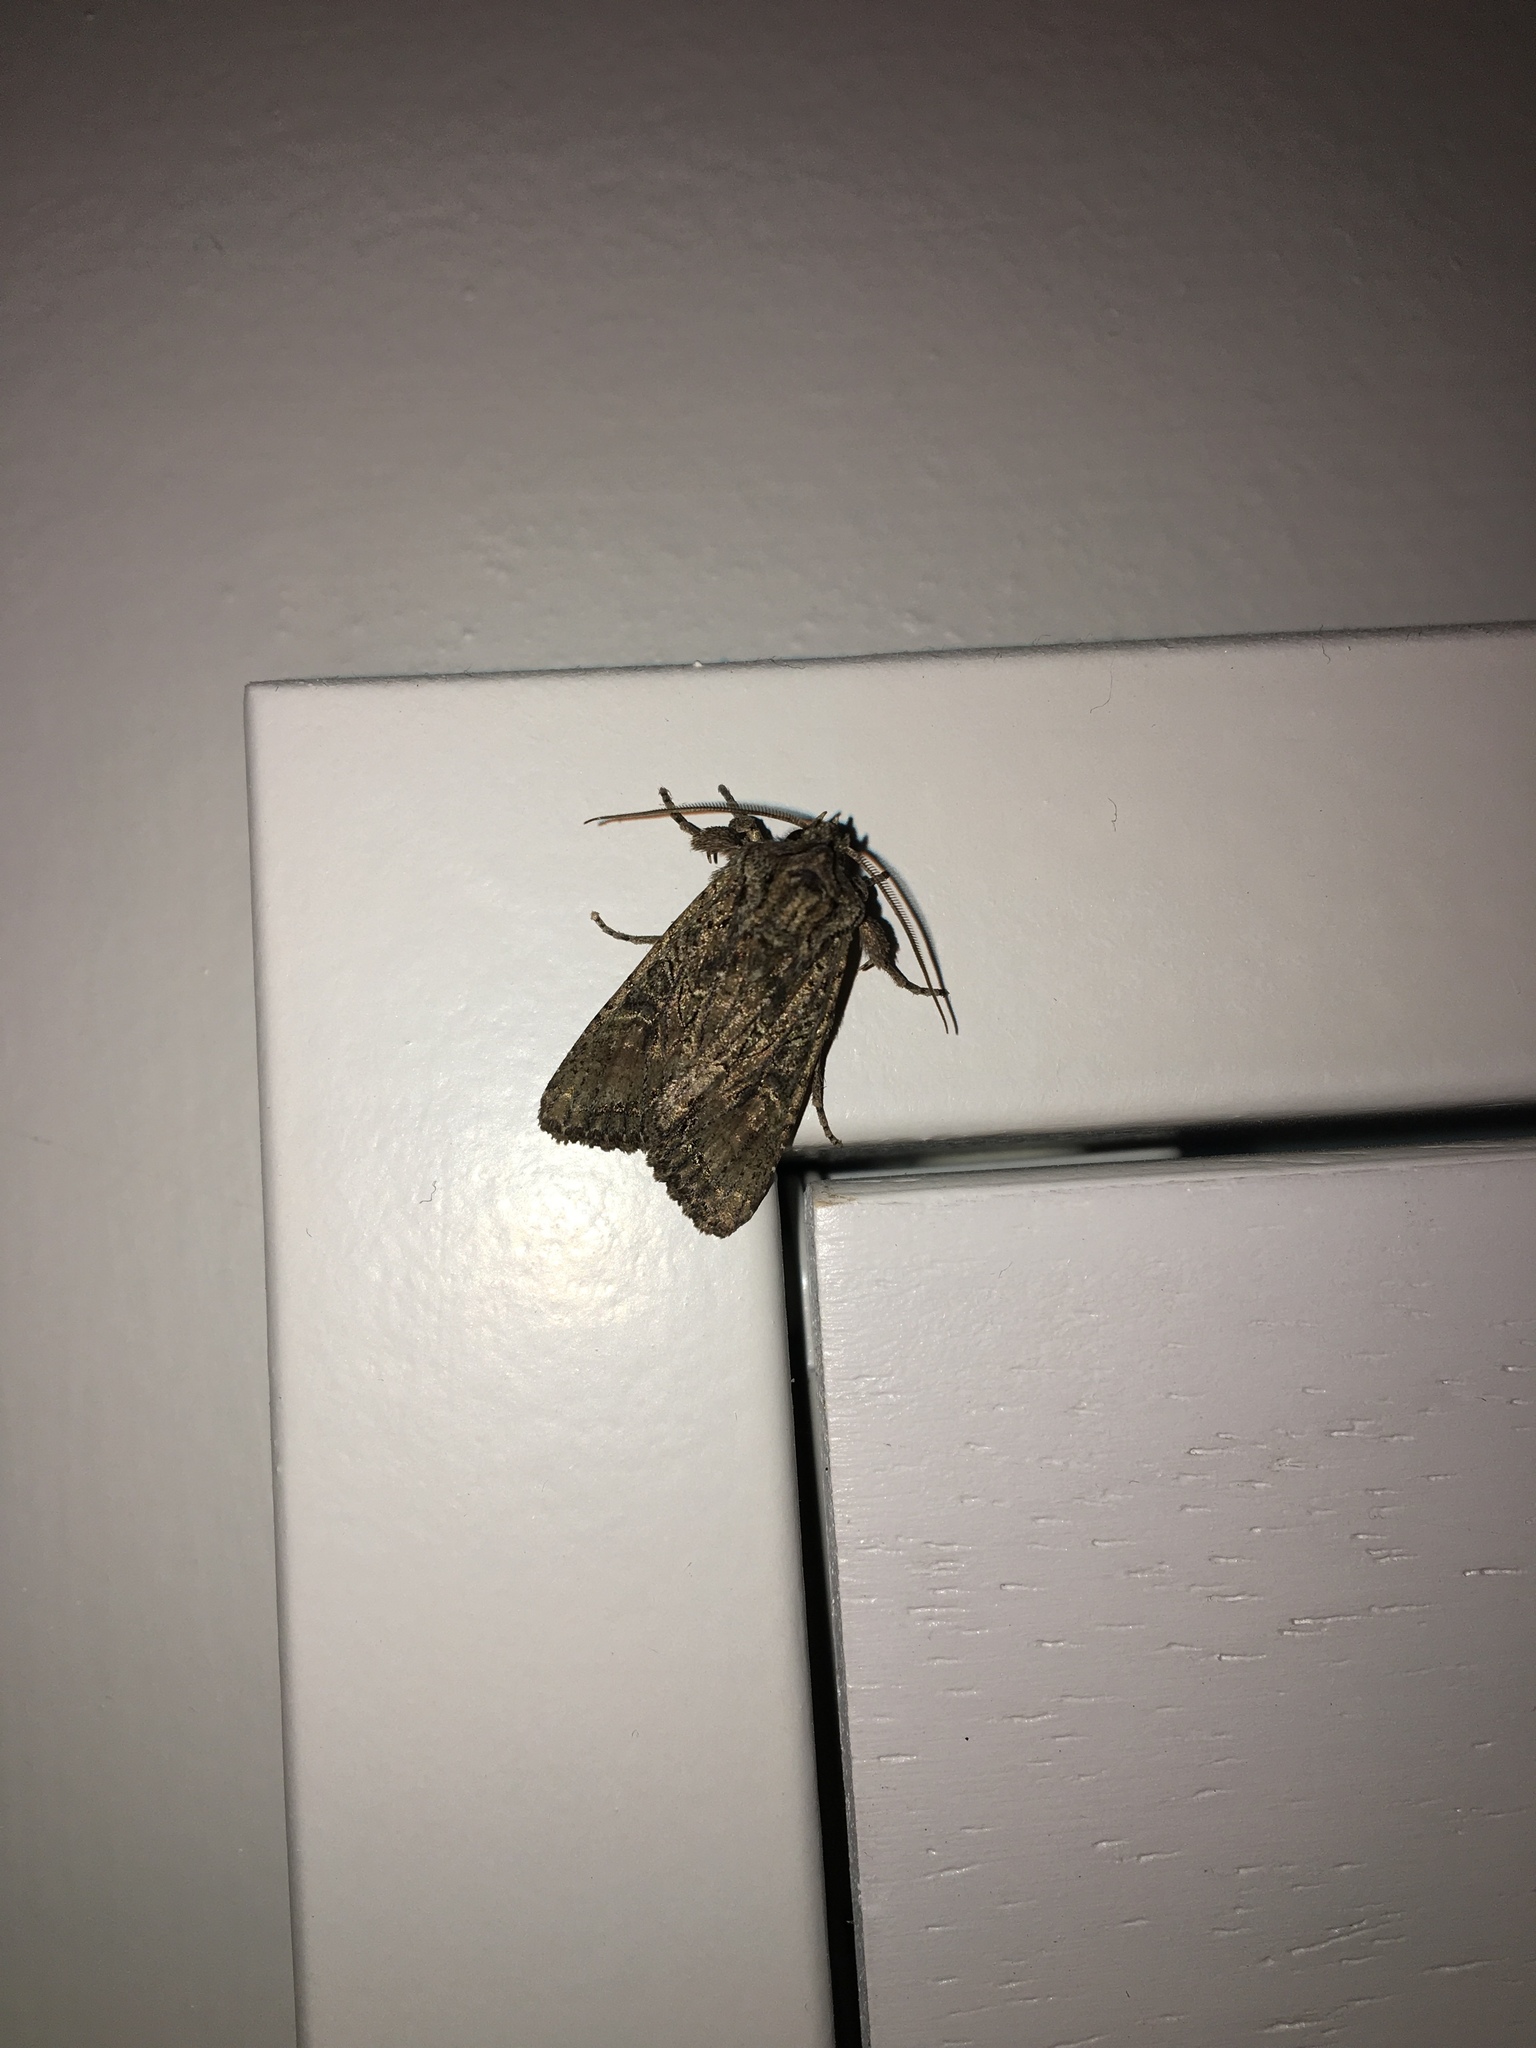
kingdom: Animalia
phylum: Arthropoda
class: Insecta
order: Lepidoptera
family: Noctuidae
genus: Ichneutica
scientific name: Ichneutica mutans
